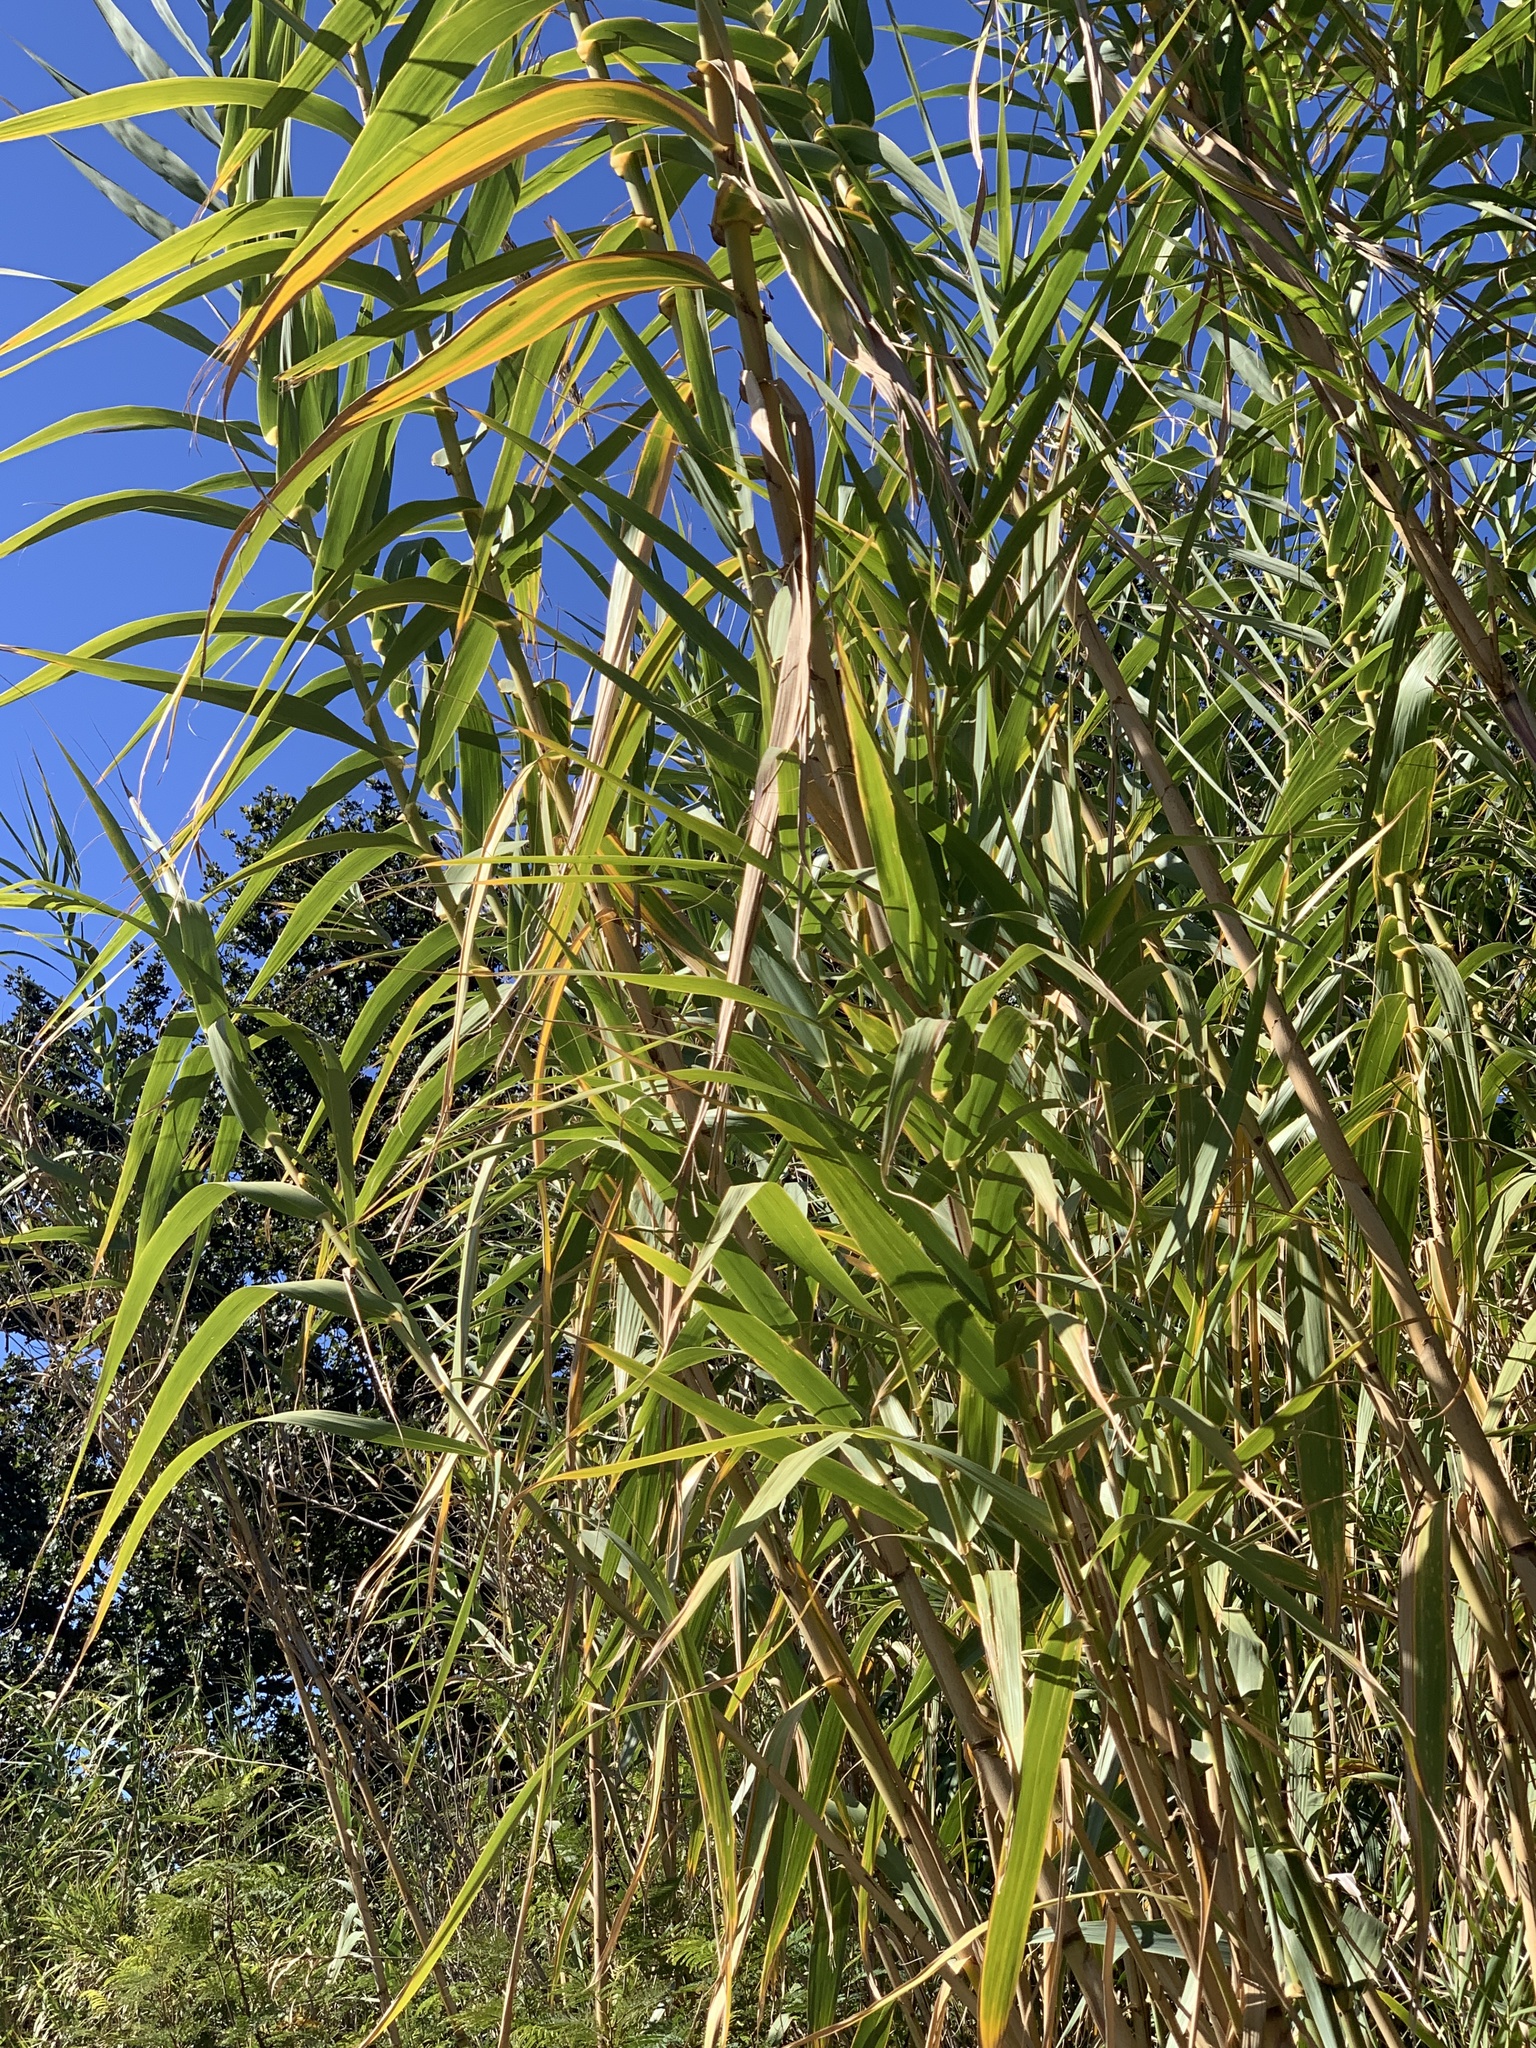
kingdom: Plantae
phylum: Tracheophyta
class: Liliopsida
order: Poales
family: Poaceae
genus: Arundo
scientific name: Arundo donax
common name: Giant reed
